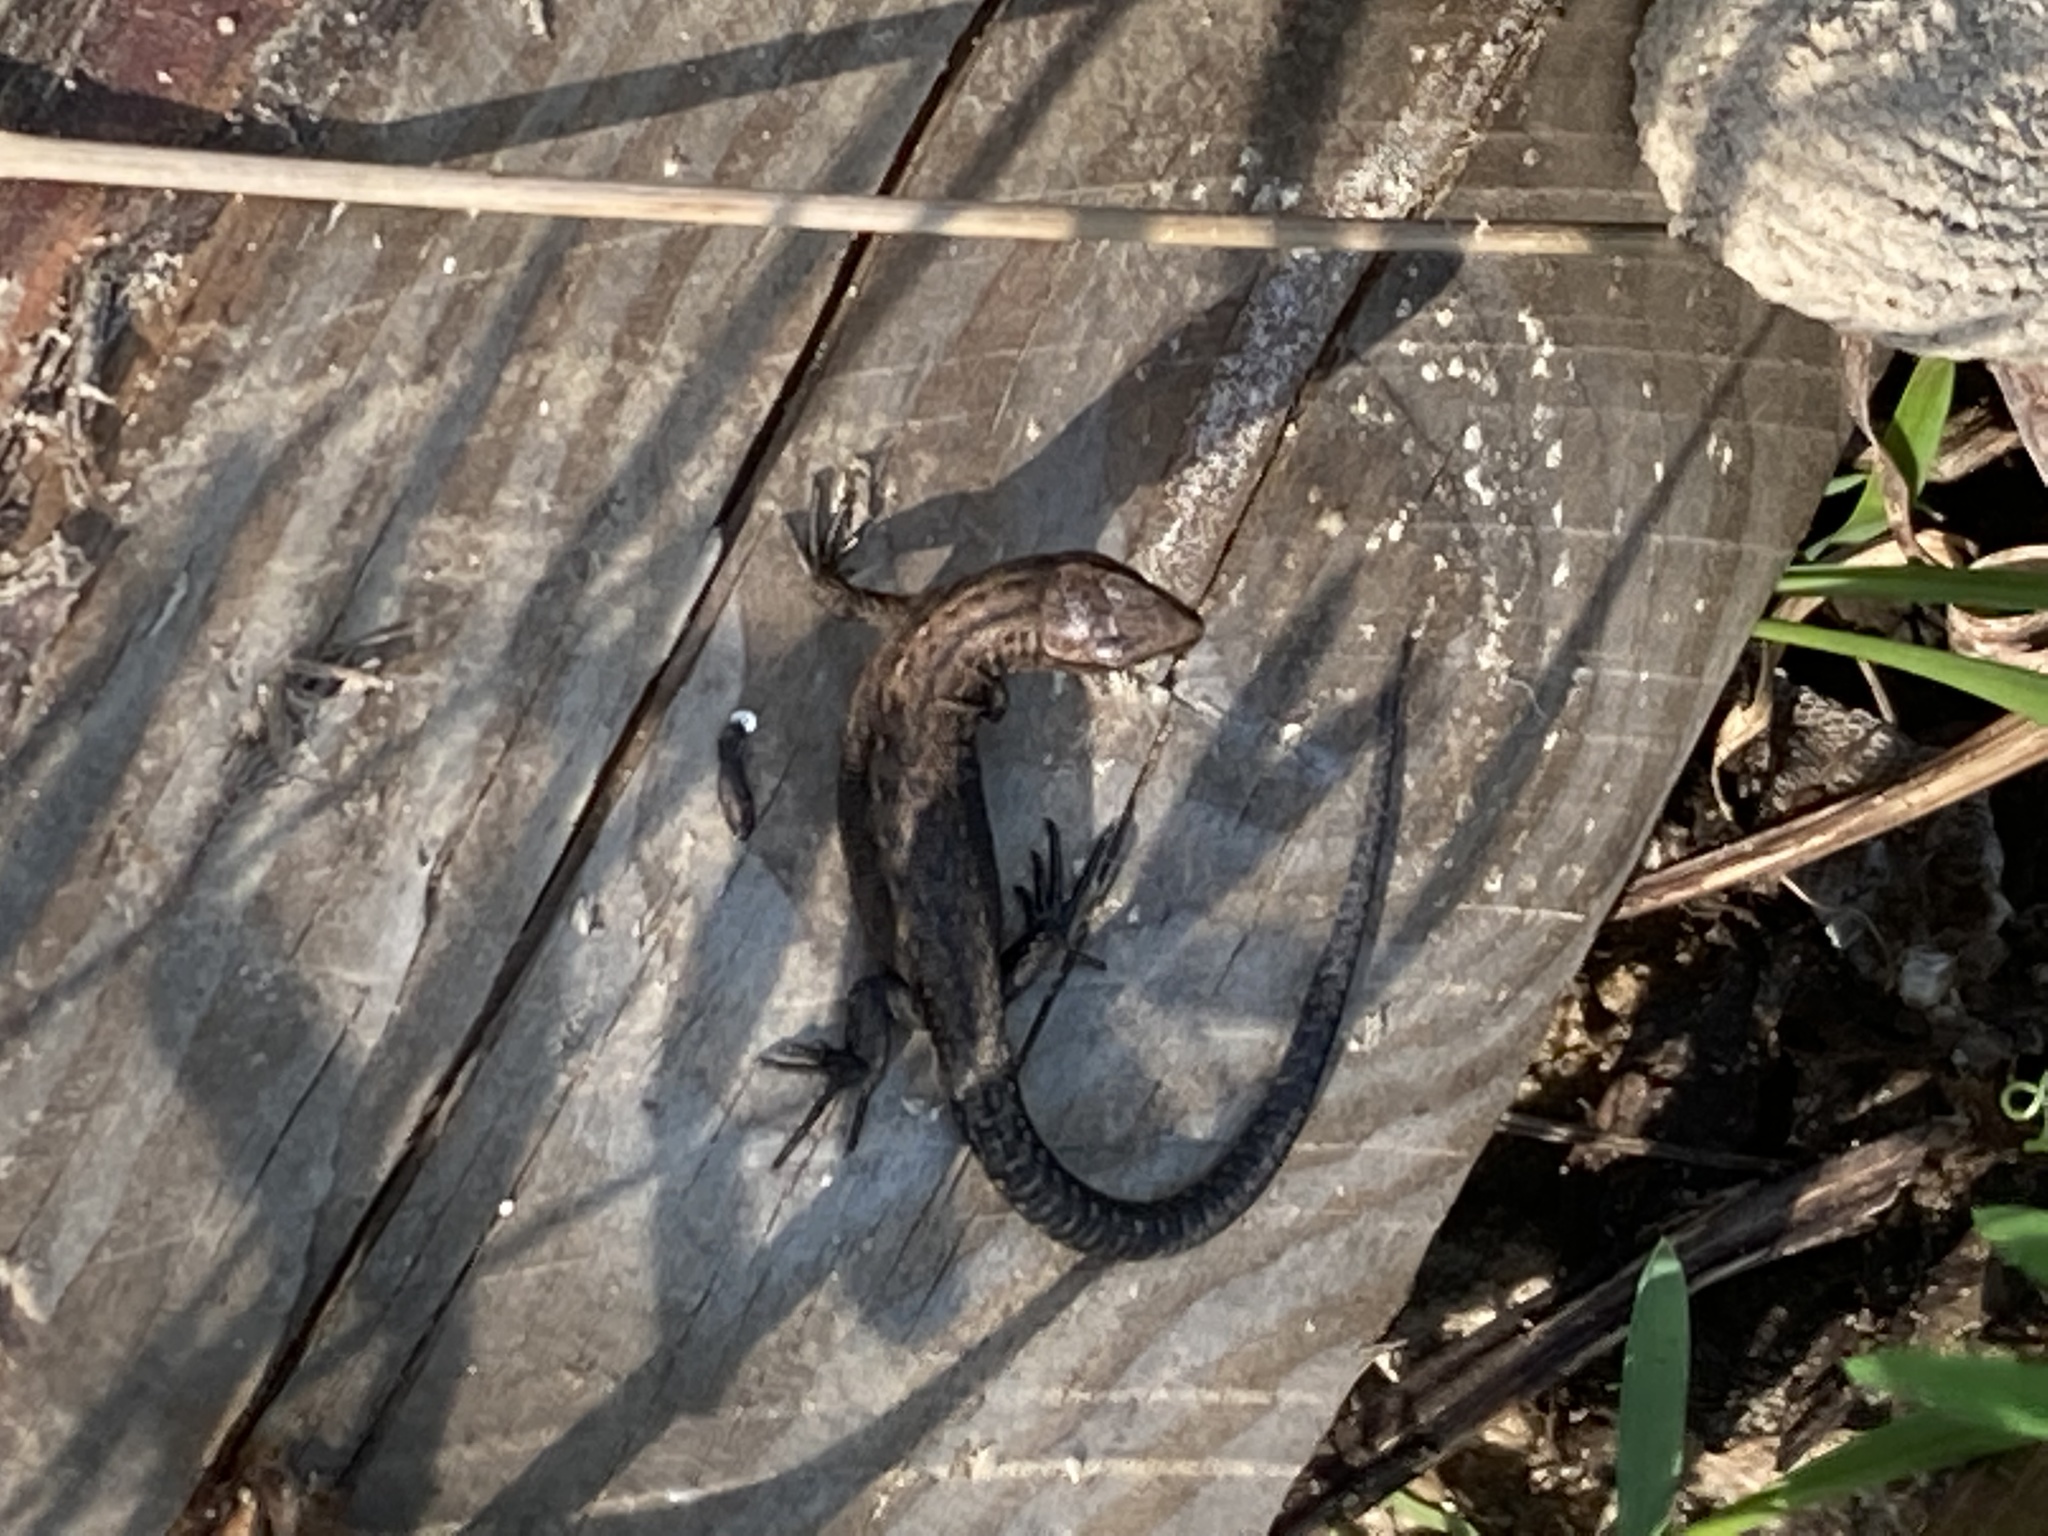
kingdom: Animalia
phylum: Chordata
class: Squamata
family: Lacertidae
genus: Zootoca
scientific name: Zootoca vivipara
